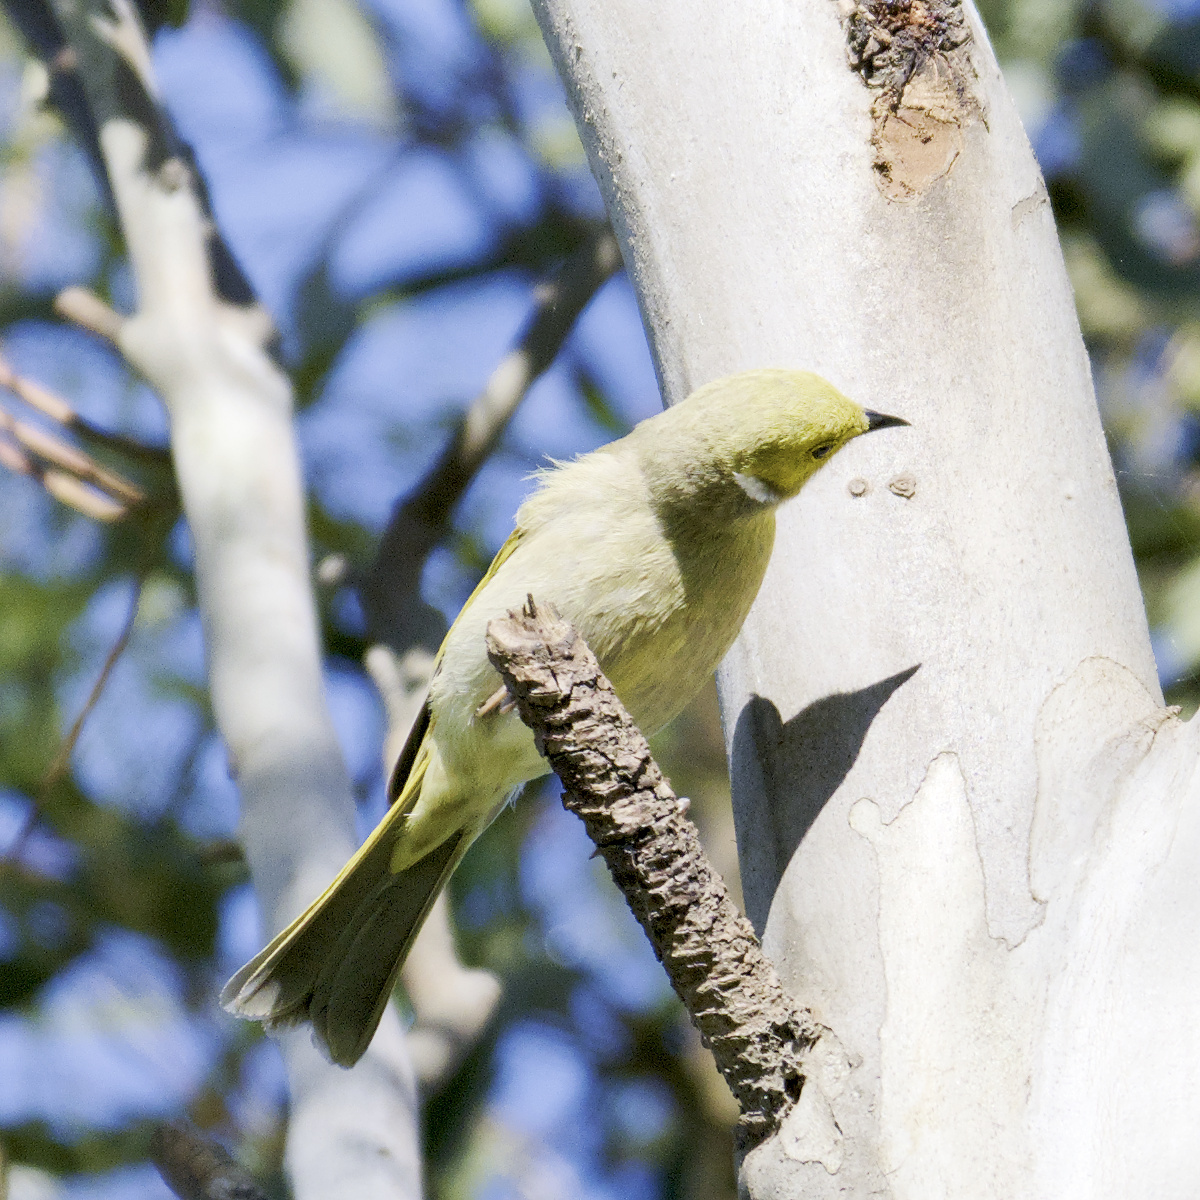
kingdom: Animalia
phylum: Chordata
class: Aves
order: Passeriformes
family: Meliphagidae
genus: Ptilotula
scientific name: Ptilotula penicillata
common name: White-plumed honeyeater
